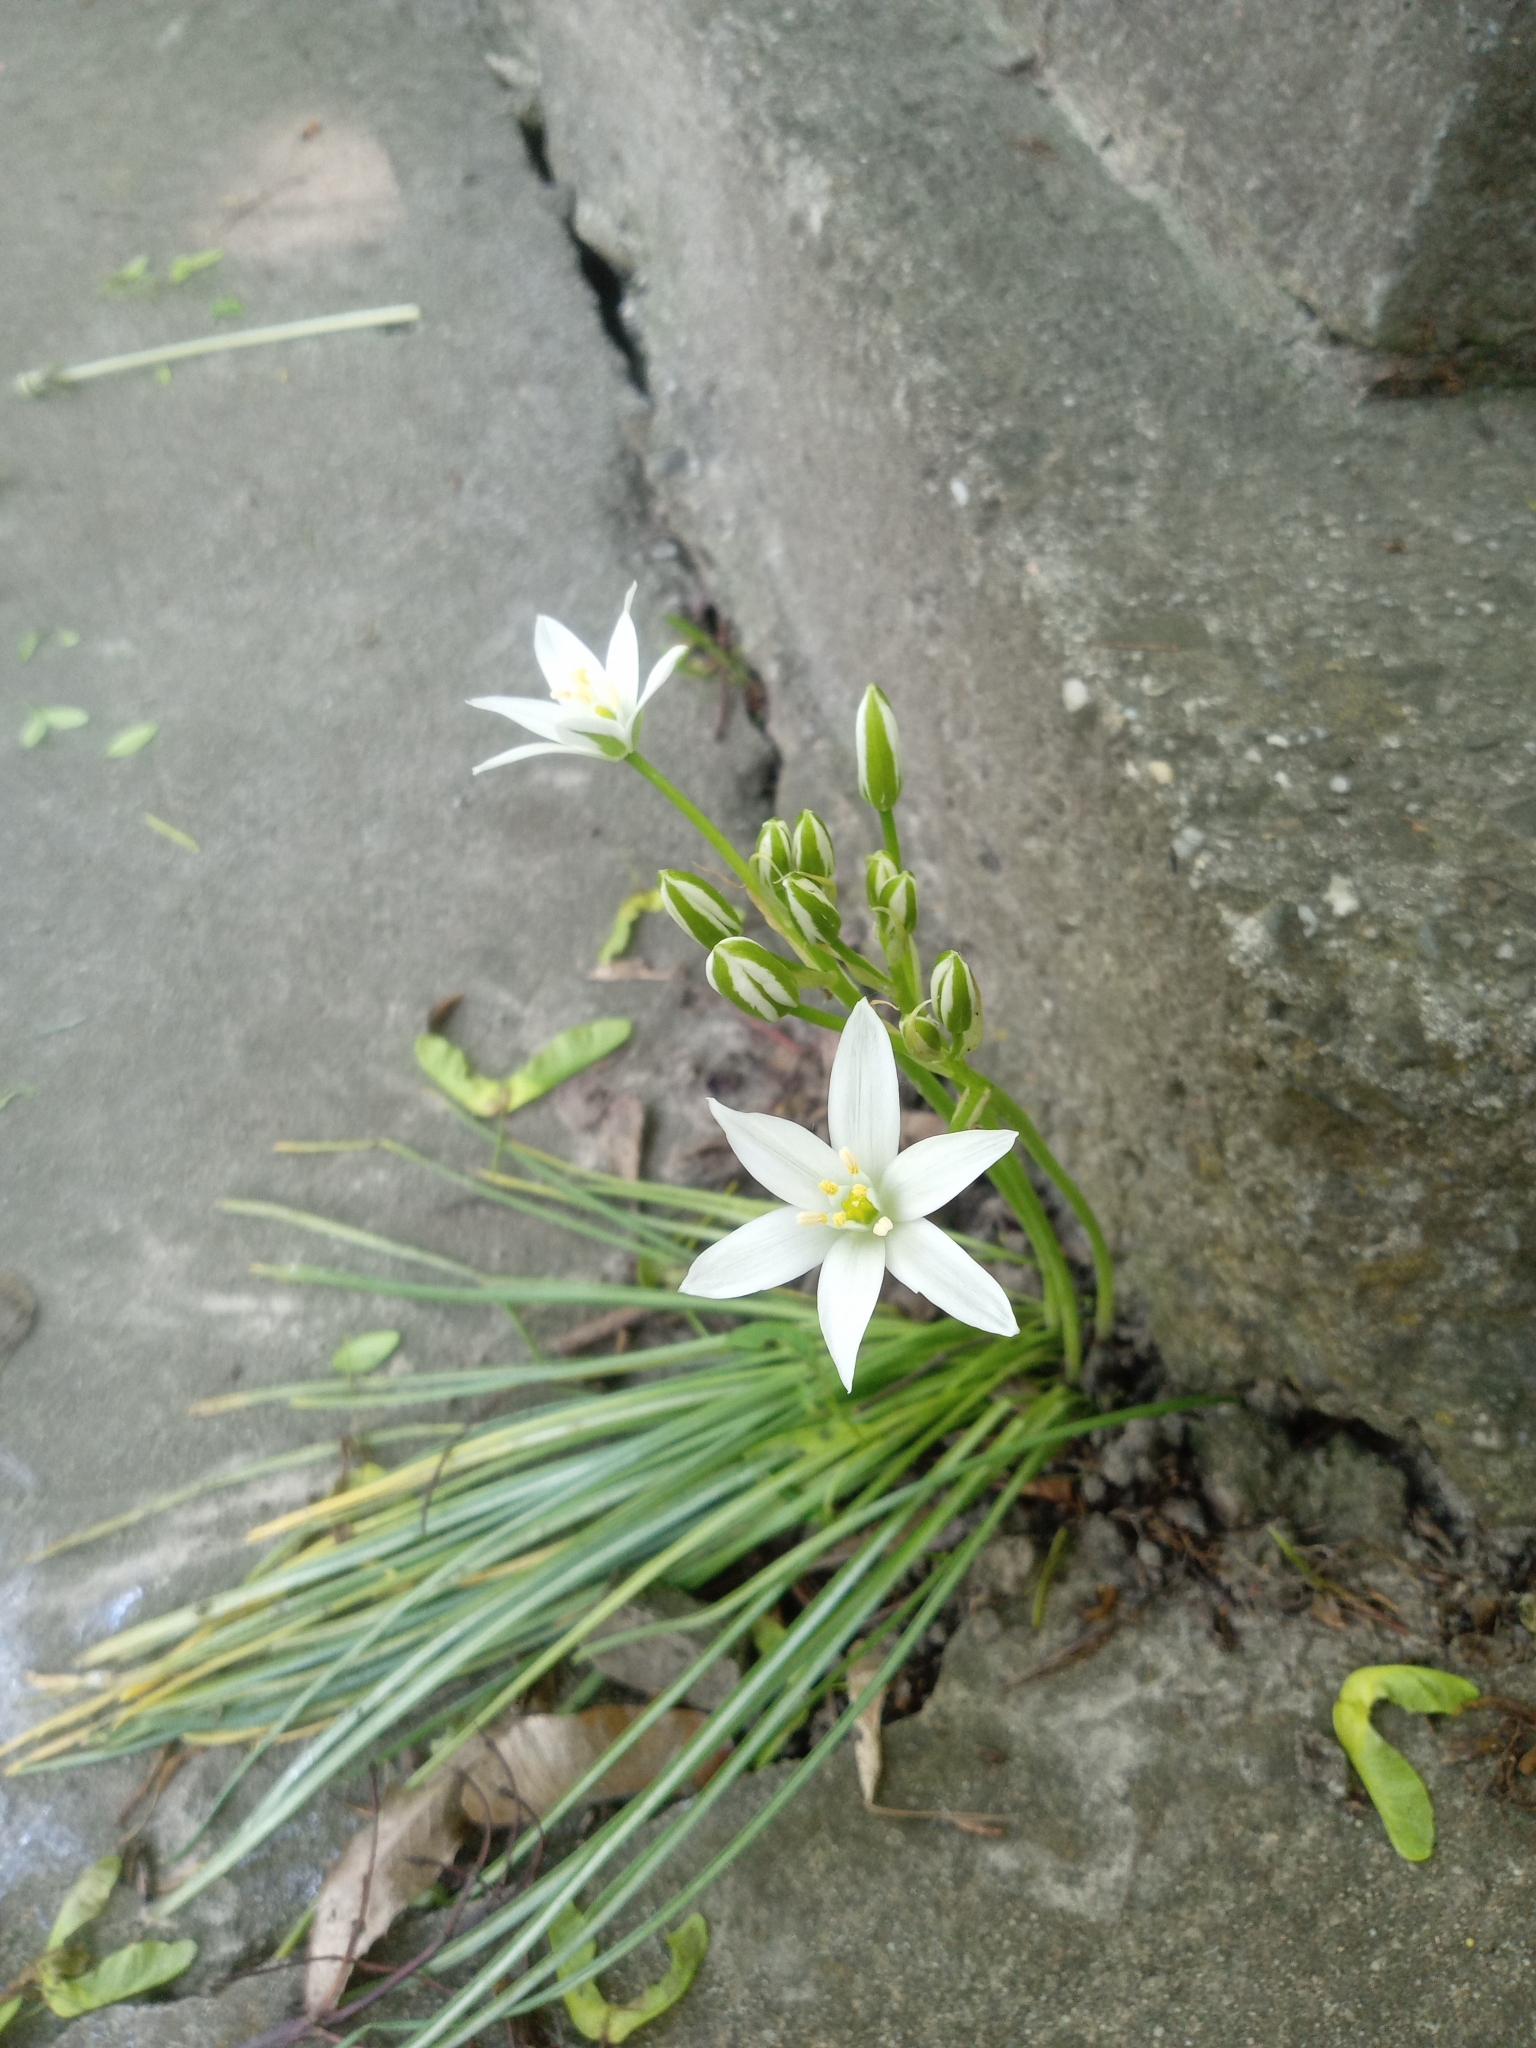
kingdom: Plantae
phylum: Tracheophyta
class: Liliopsida
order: Asparagales
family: Asparagaceae
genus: Ornithogalum
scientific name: Ornithogalum umbellatum
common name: Garden star-of-bethlehem
